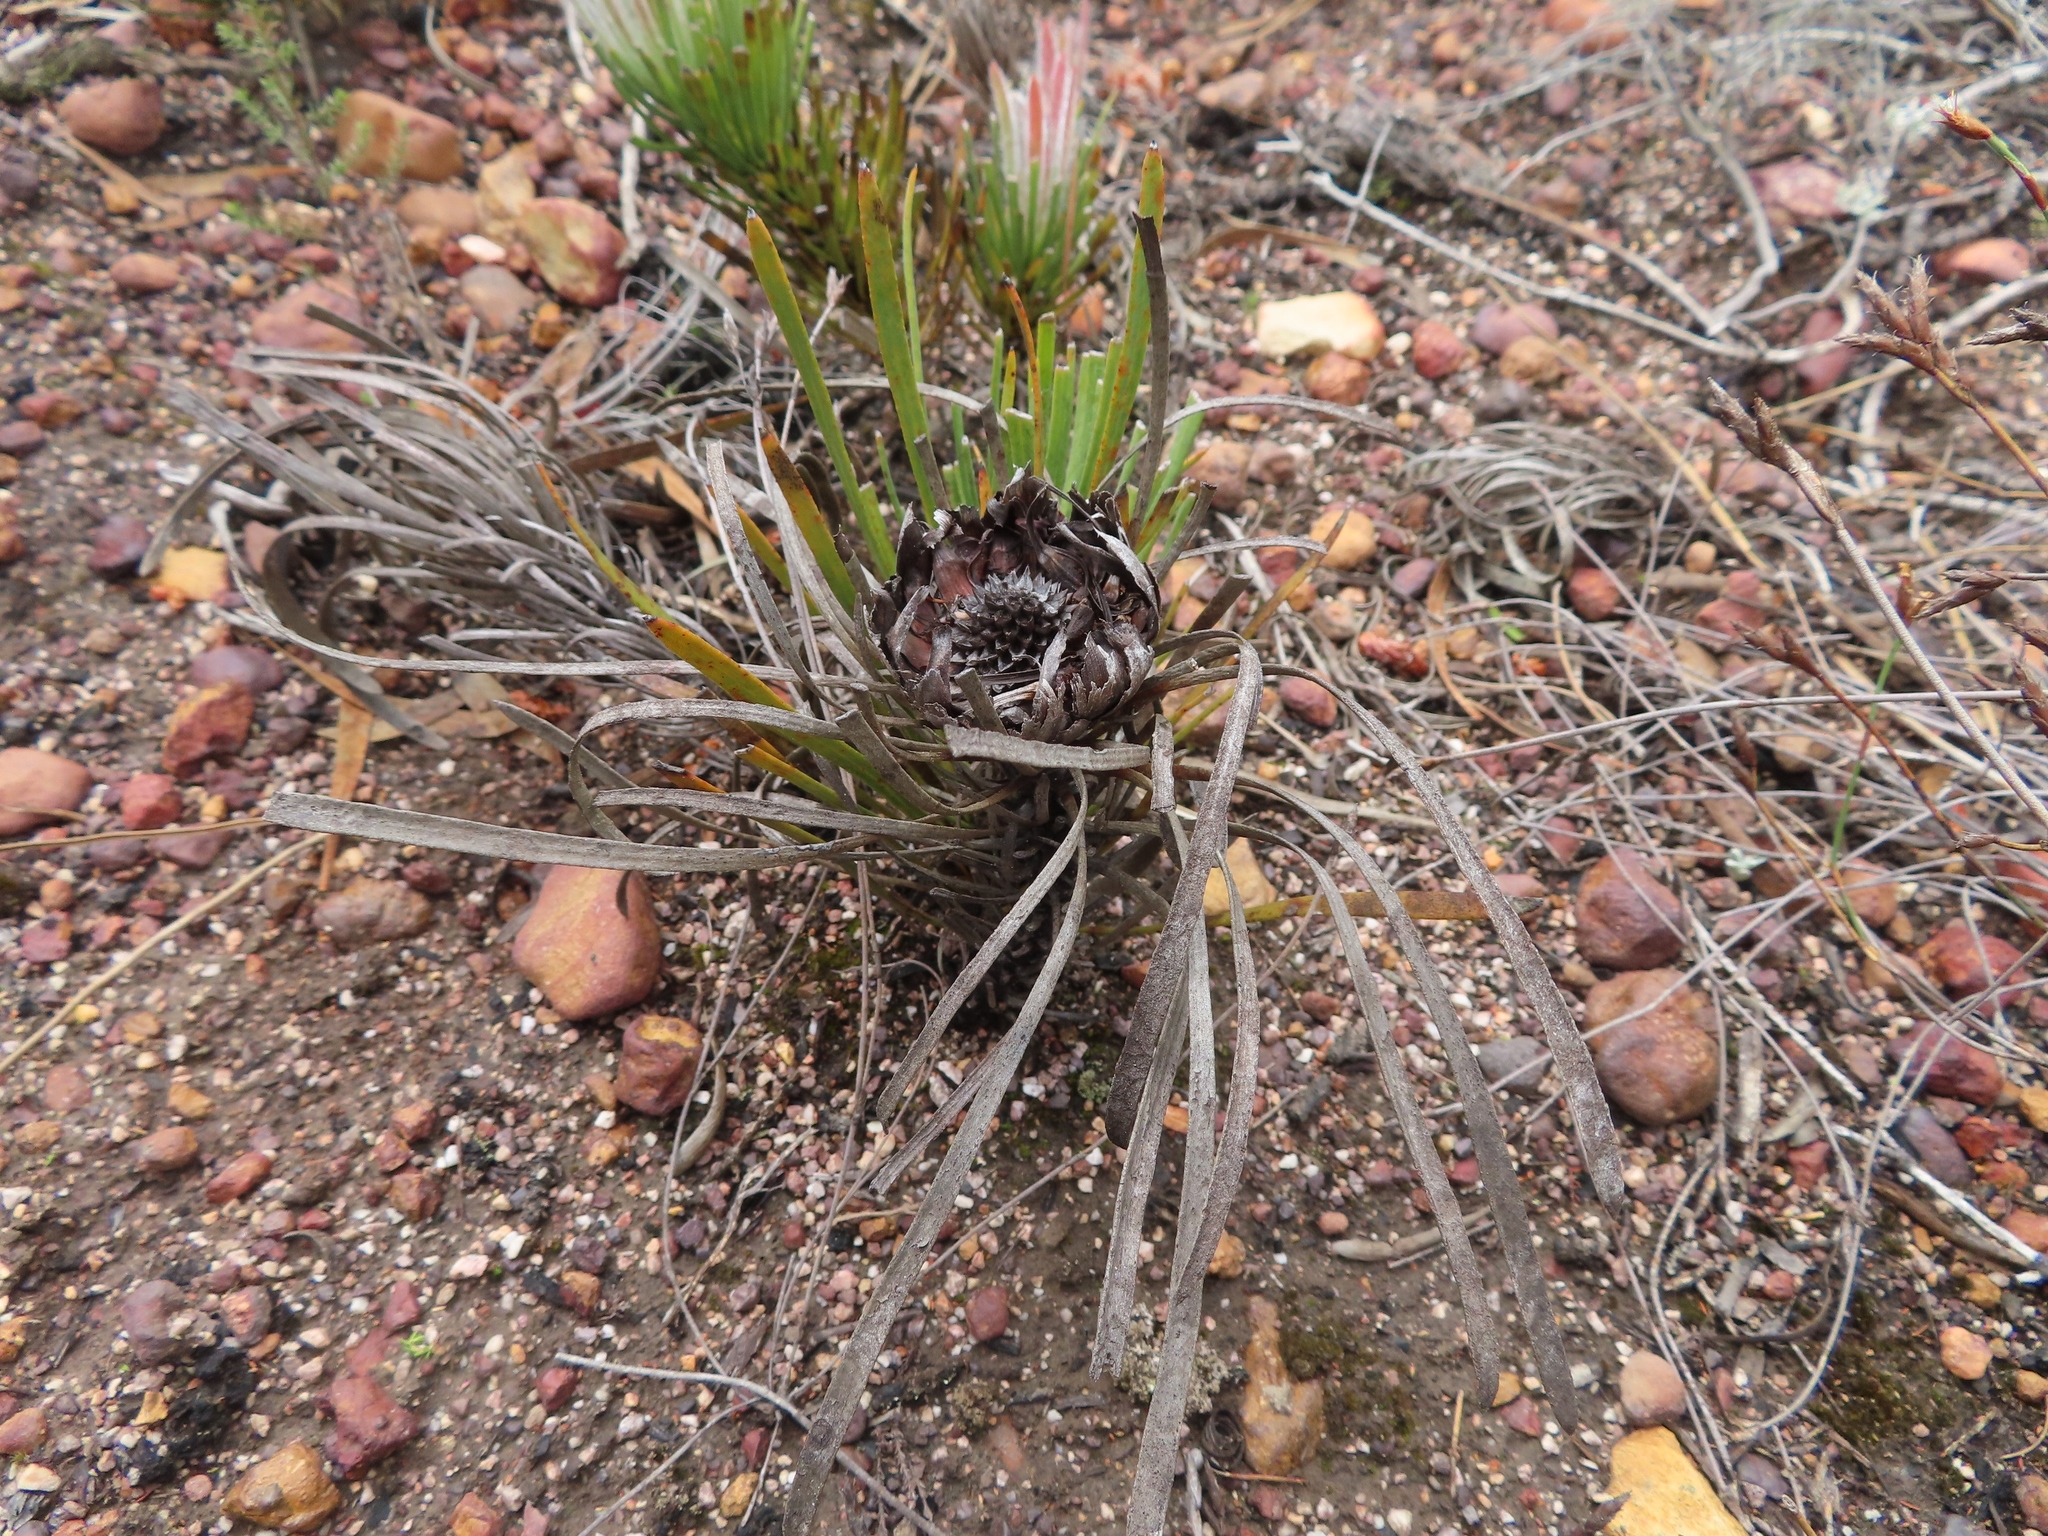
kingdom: Plantae
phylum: Tracheophyta
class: Magnoliopsida
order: Proteales
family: Proteaceae
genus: Protea
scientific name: Protea aspera
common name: Rough-leaf sugarbush
